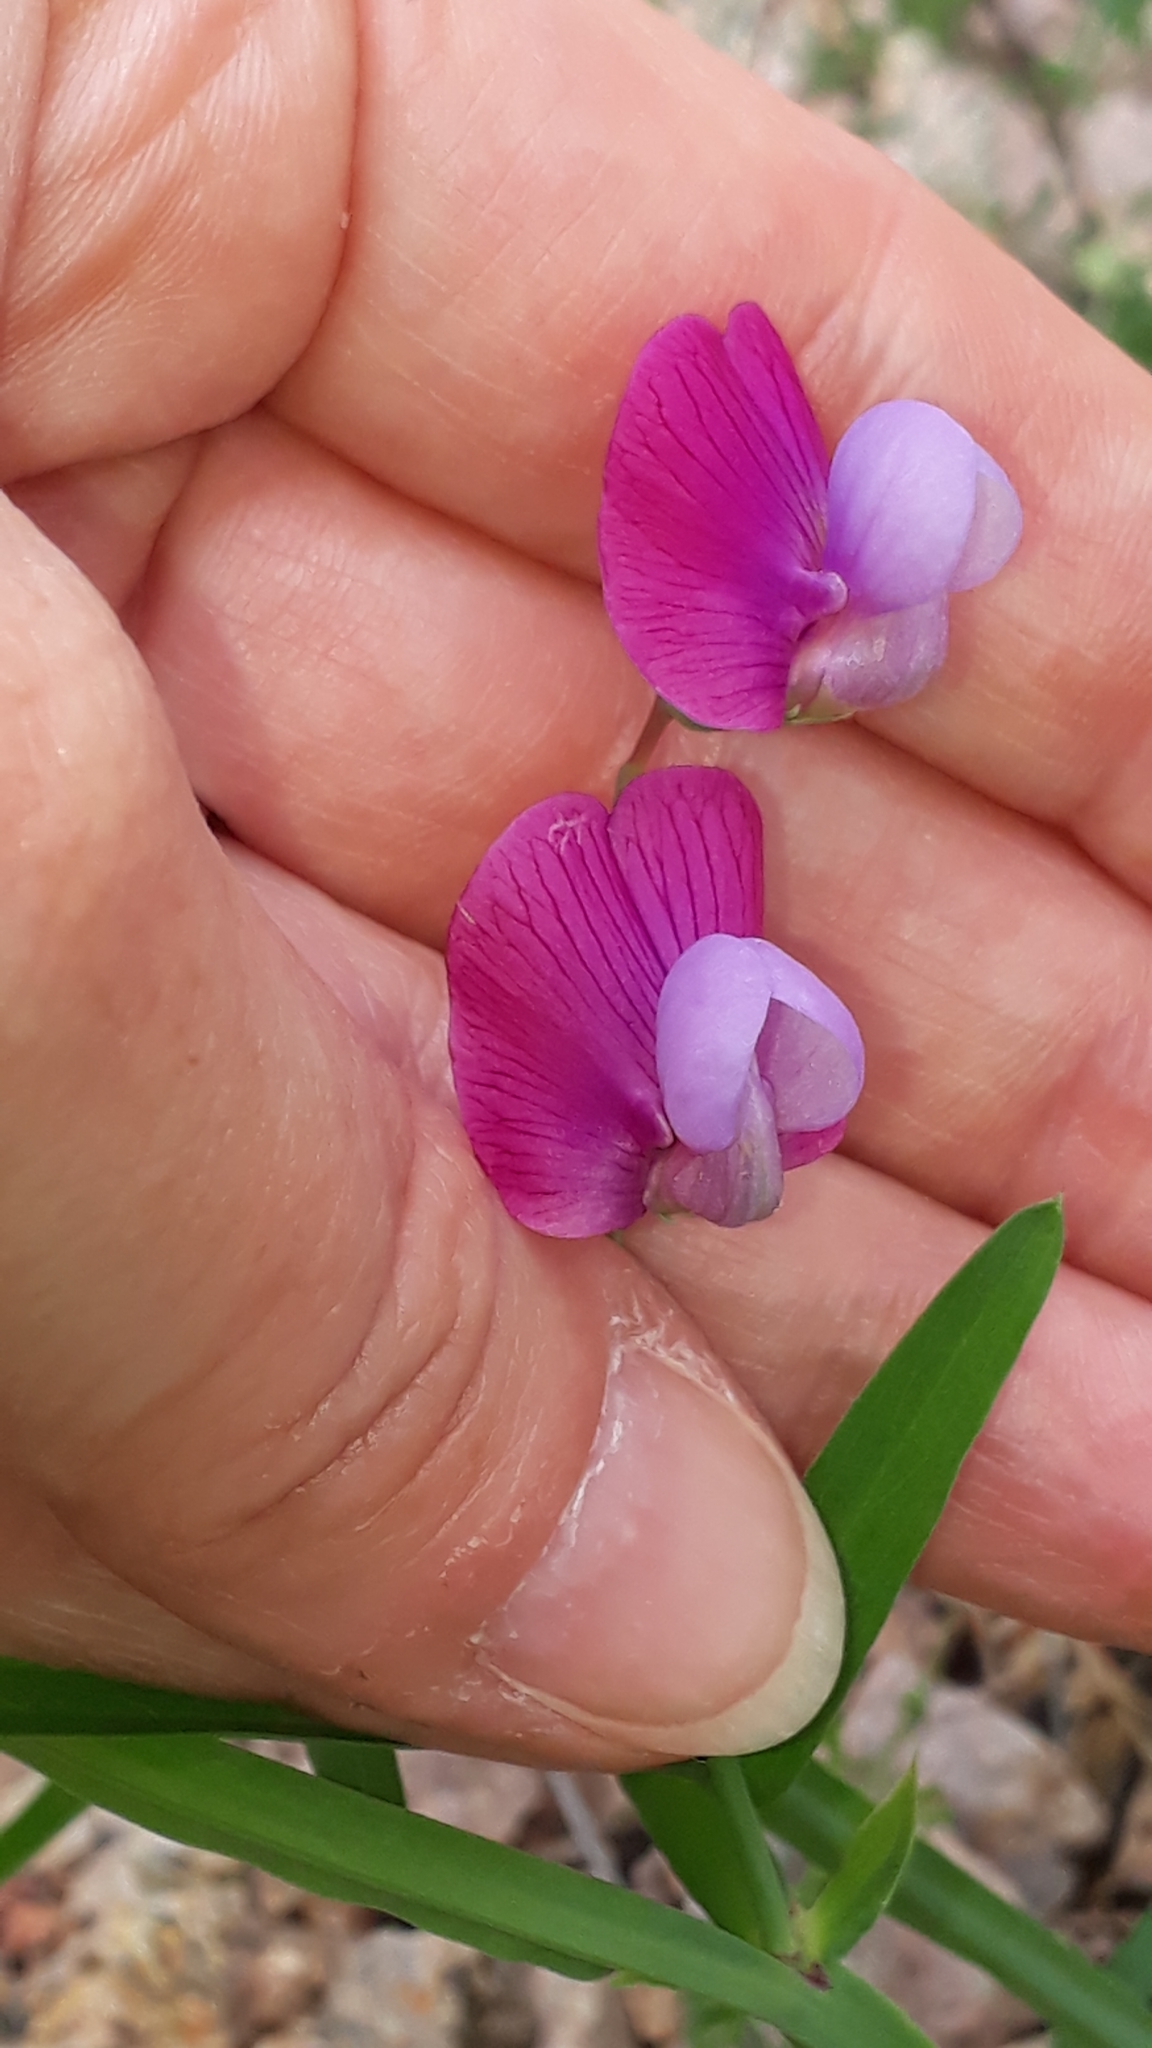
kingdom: Plantae
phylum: Tracheophyta
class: Magnoliopsida
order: Fabales
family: Fabaceae
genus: Lathyrus
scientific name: Lathyrus clymenum
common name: Spanish vetchling
